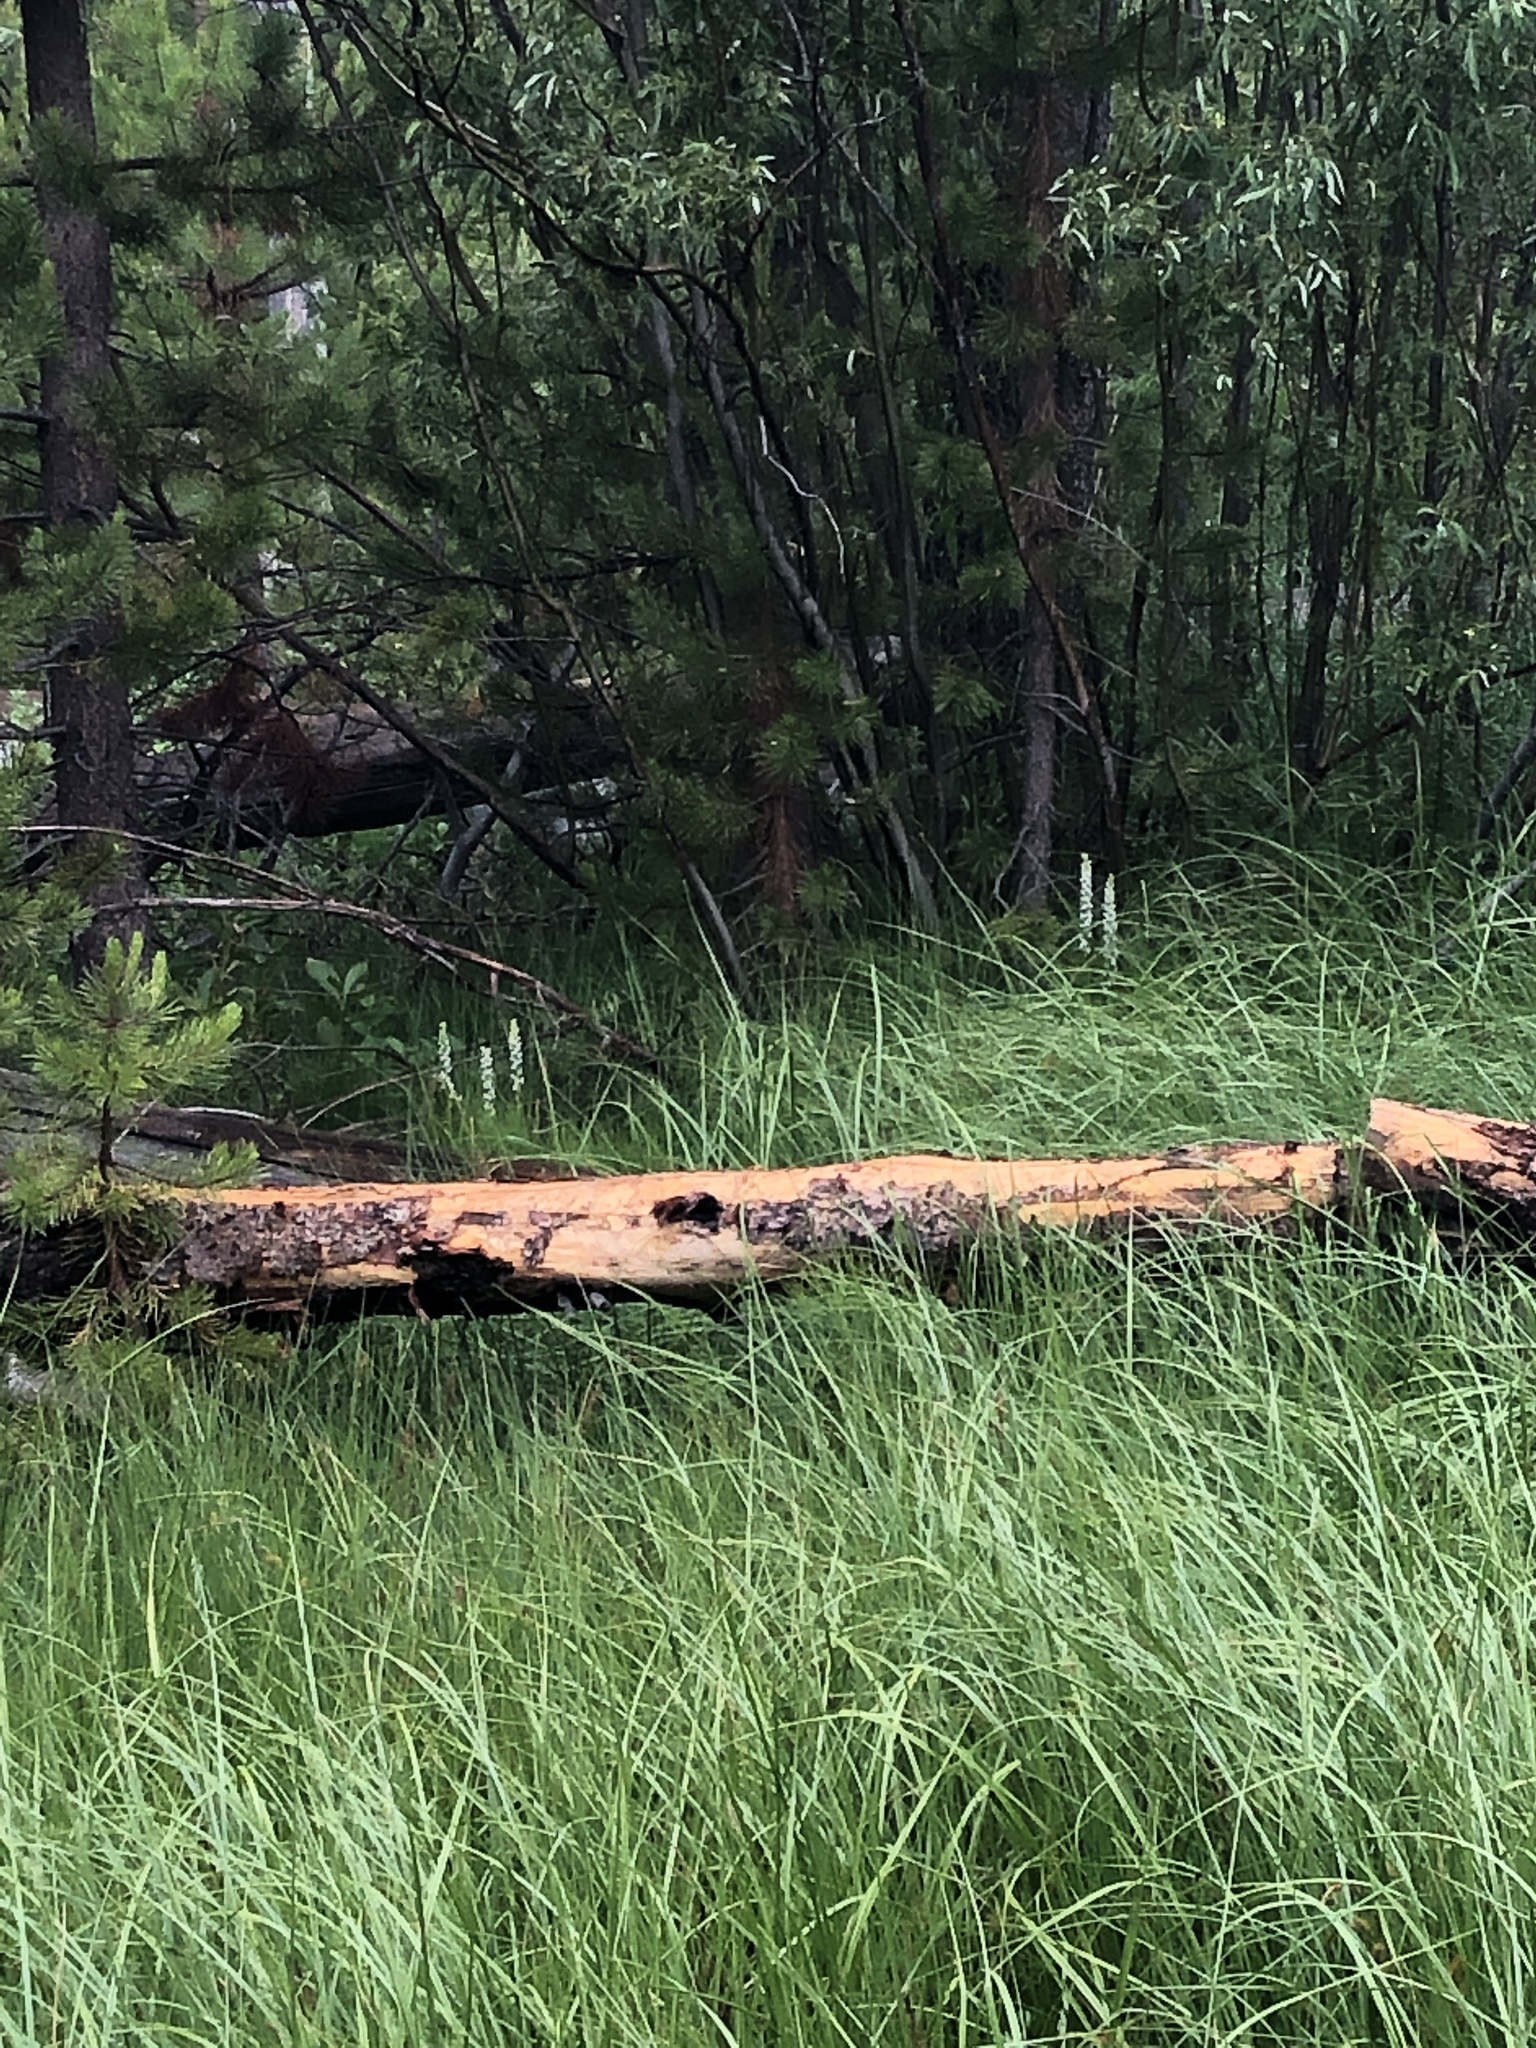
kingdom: Plantae
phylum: Tracheophyta
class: Liliopsida
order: Asparagales
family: Orchidaceae
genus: Platanthera
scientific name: Platanthera dilatata
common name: Bog candles
